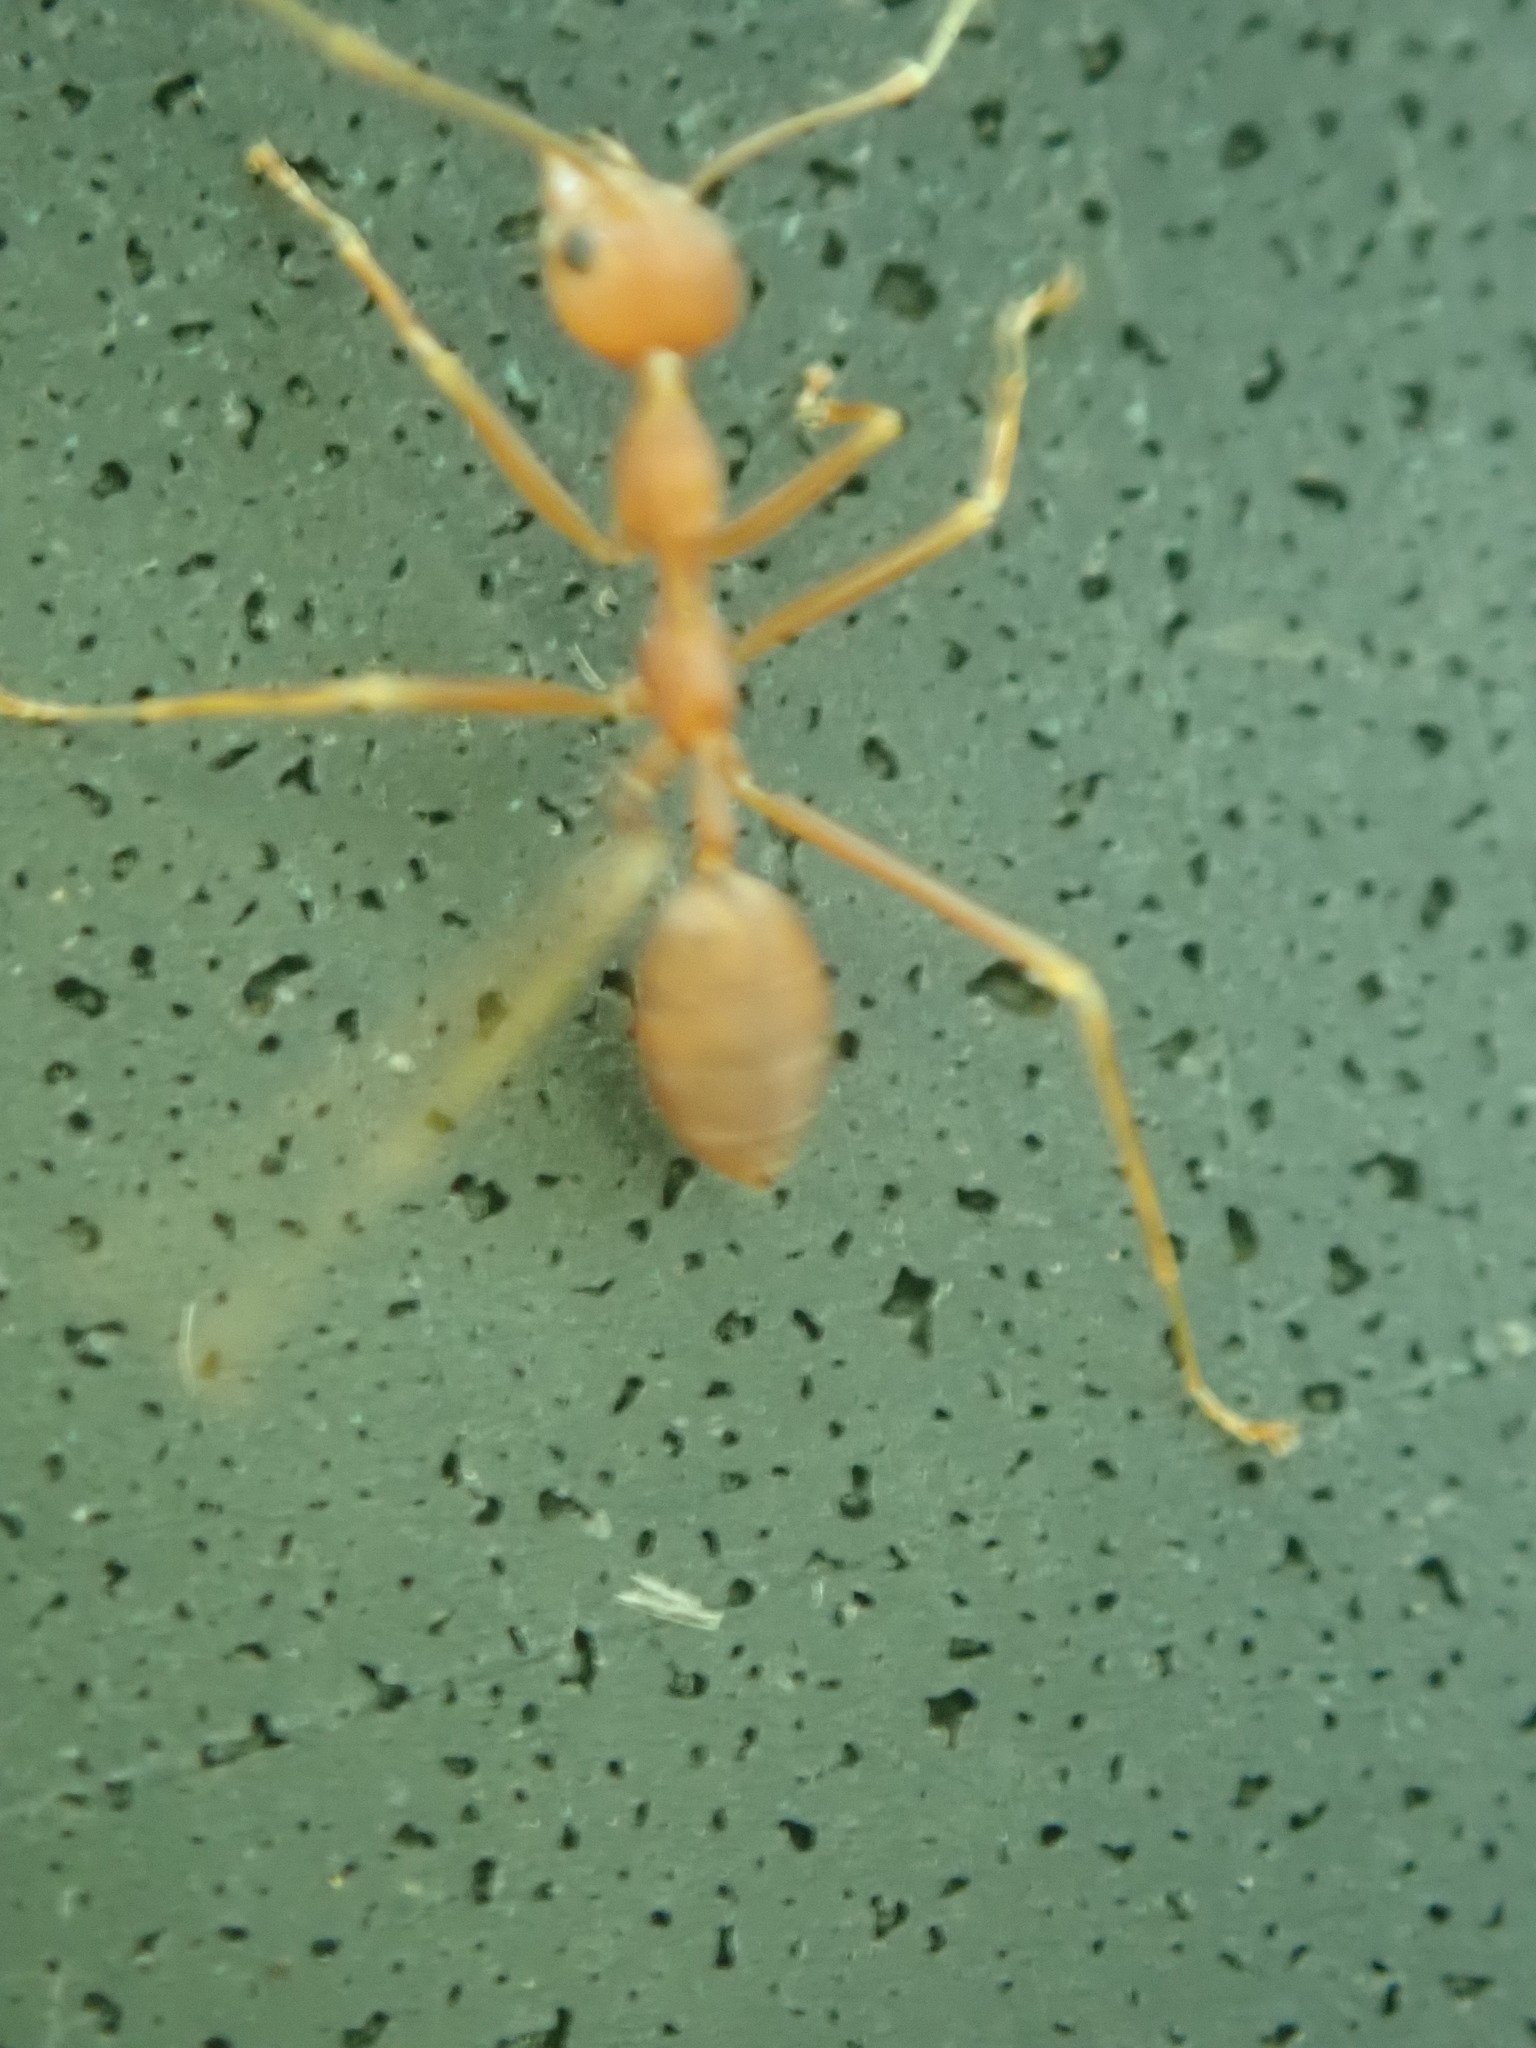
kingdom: Animalia
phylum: Arthropoda
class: Insecta
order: Hymenoptera
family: Formicidae
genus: Oecophylla
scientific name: Oecophylla smaragdina
